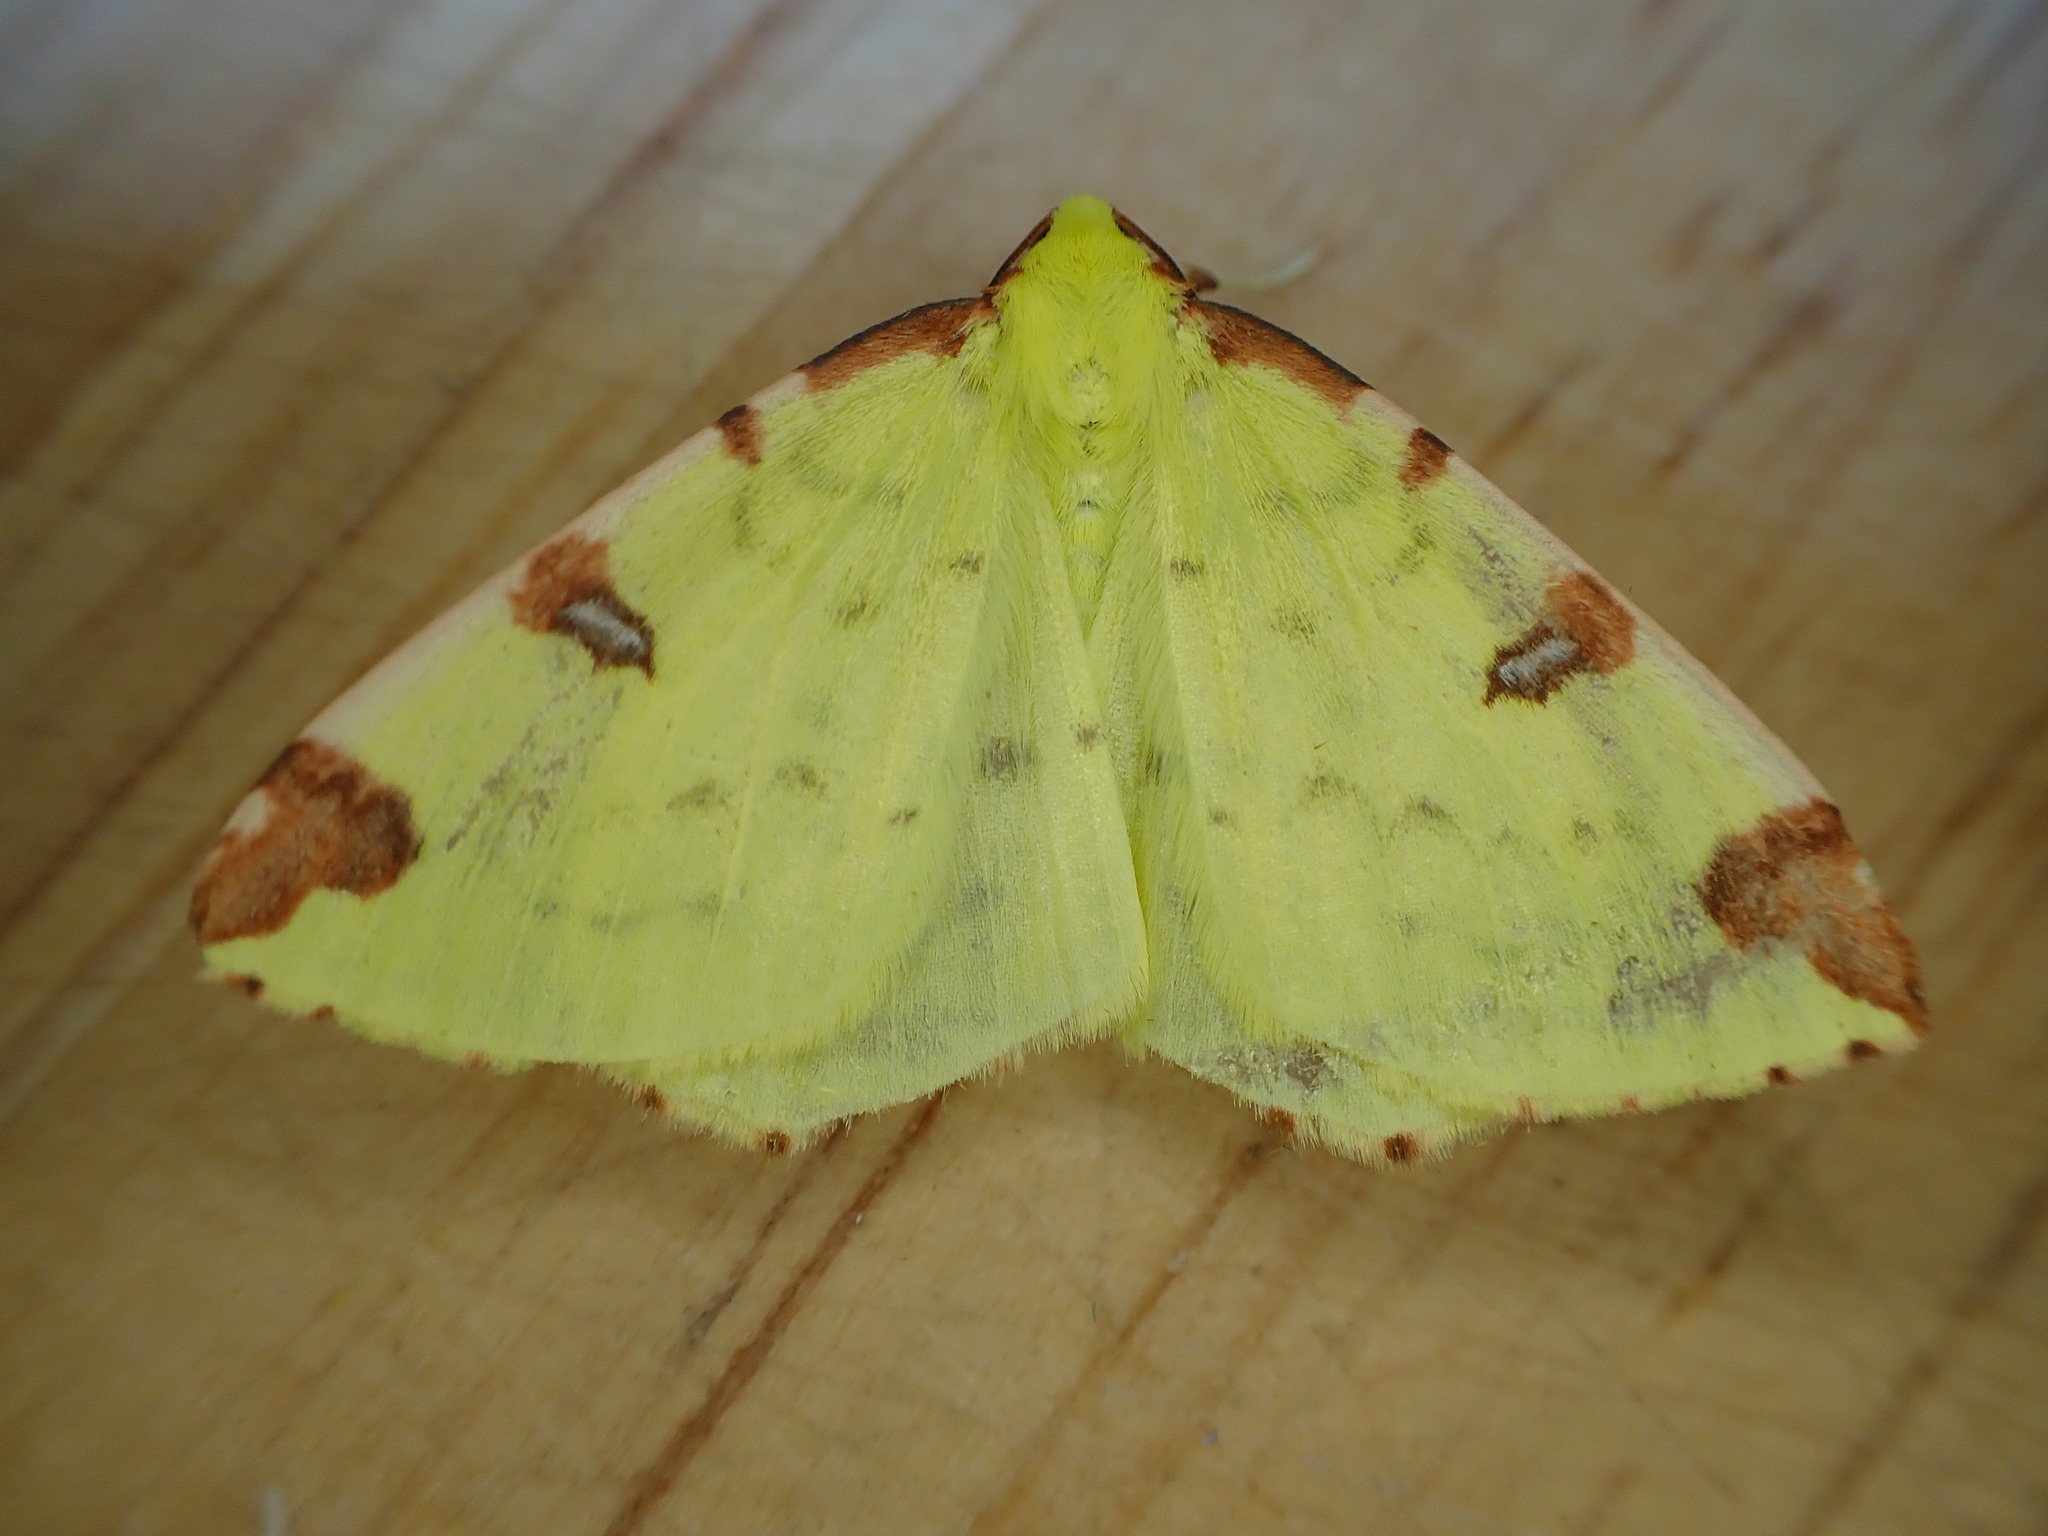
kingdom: Animalia
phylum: Arthropoda
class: Insecta
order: Lepidoptera
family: Geometridae
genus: Opisthograptis
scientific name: Opisthograptis luteolata
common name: Brimstone moth
